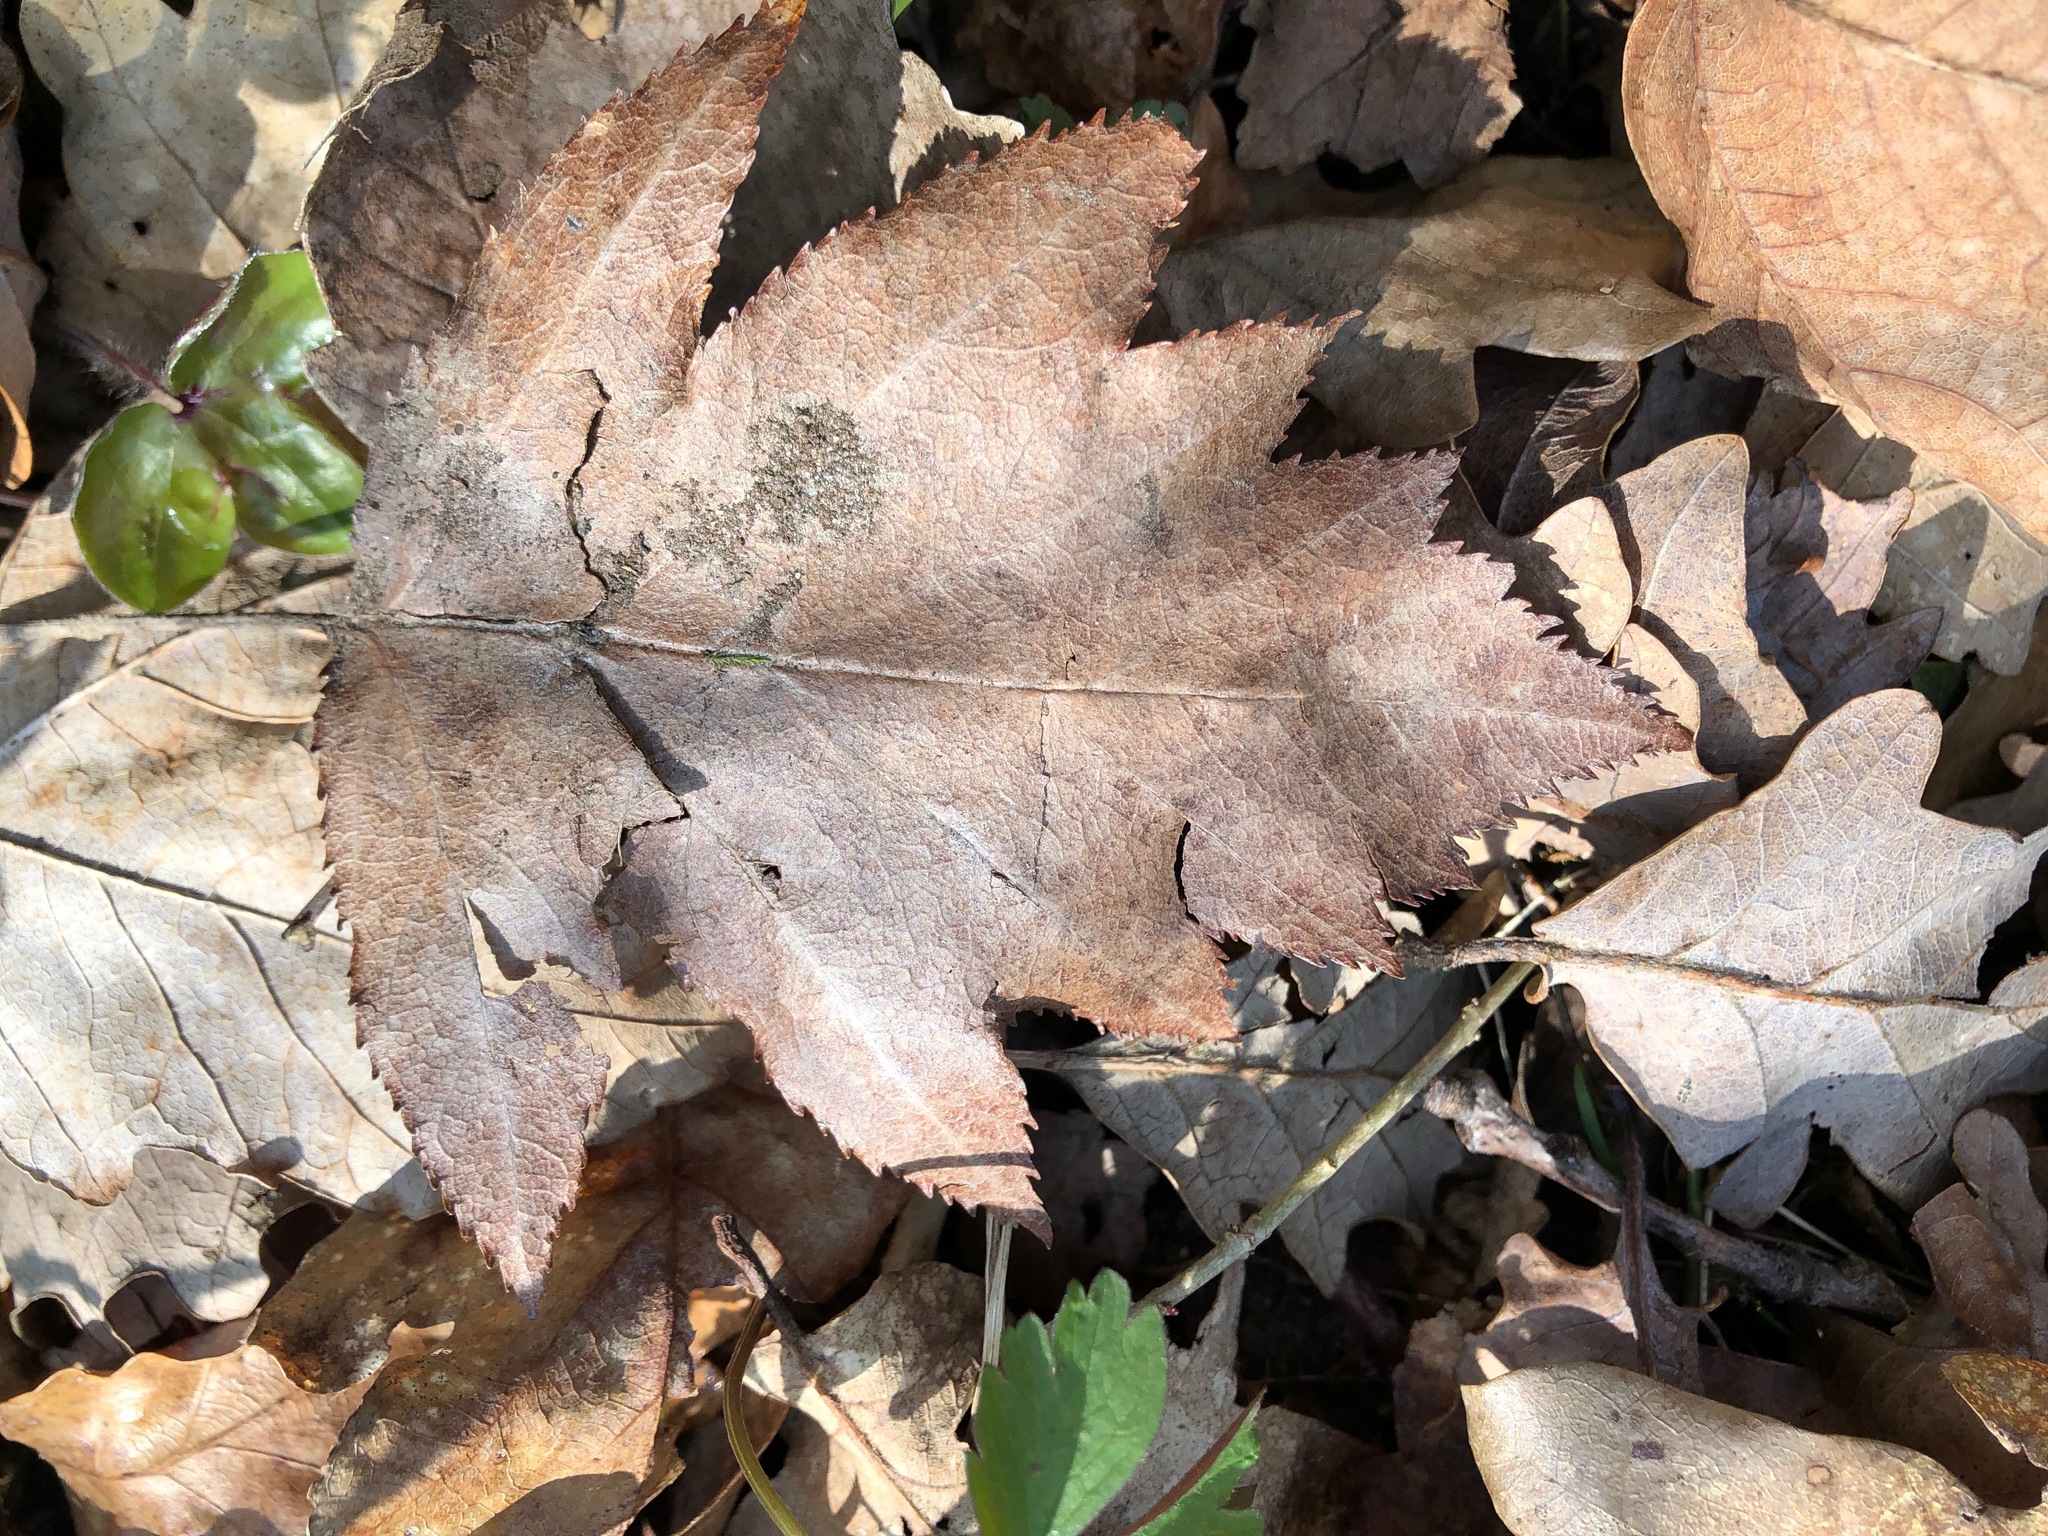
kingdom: Plantae
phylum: Tracheophyta
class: Magnoliopsida
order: Rosales
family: Rosaceae
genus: Torminalis
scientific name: Torminalis glaberrima
